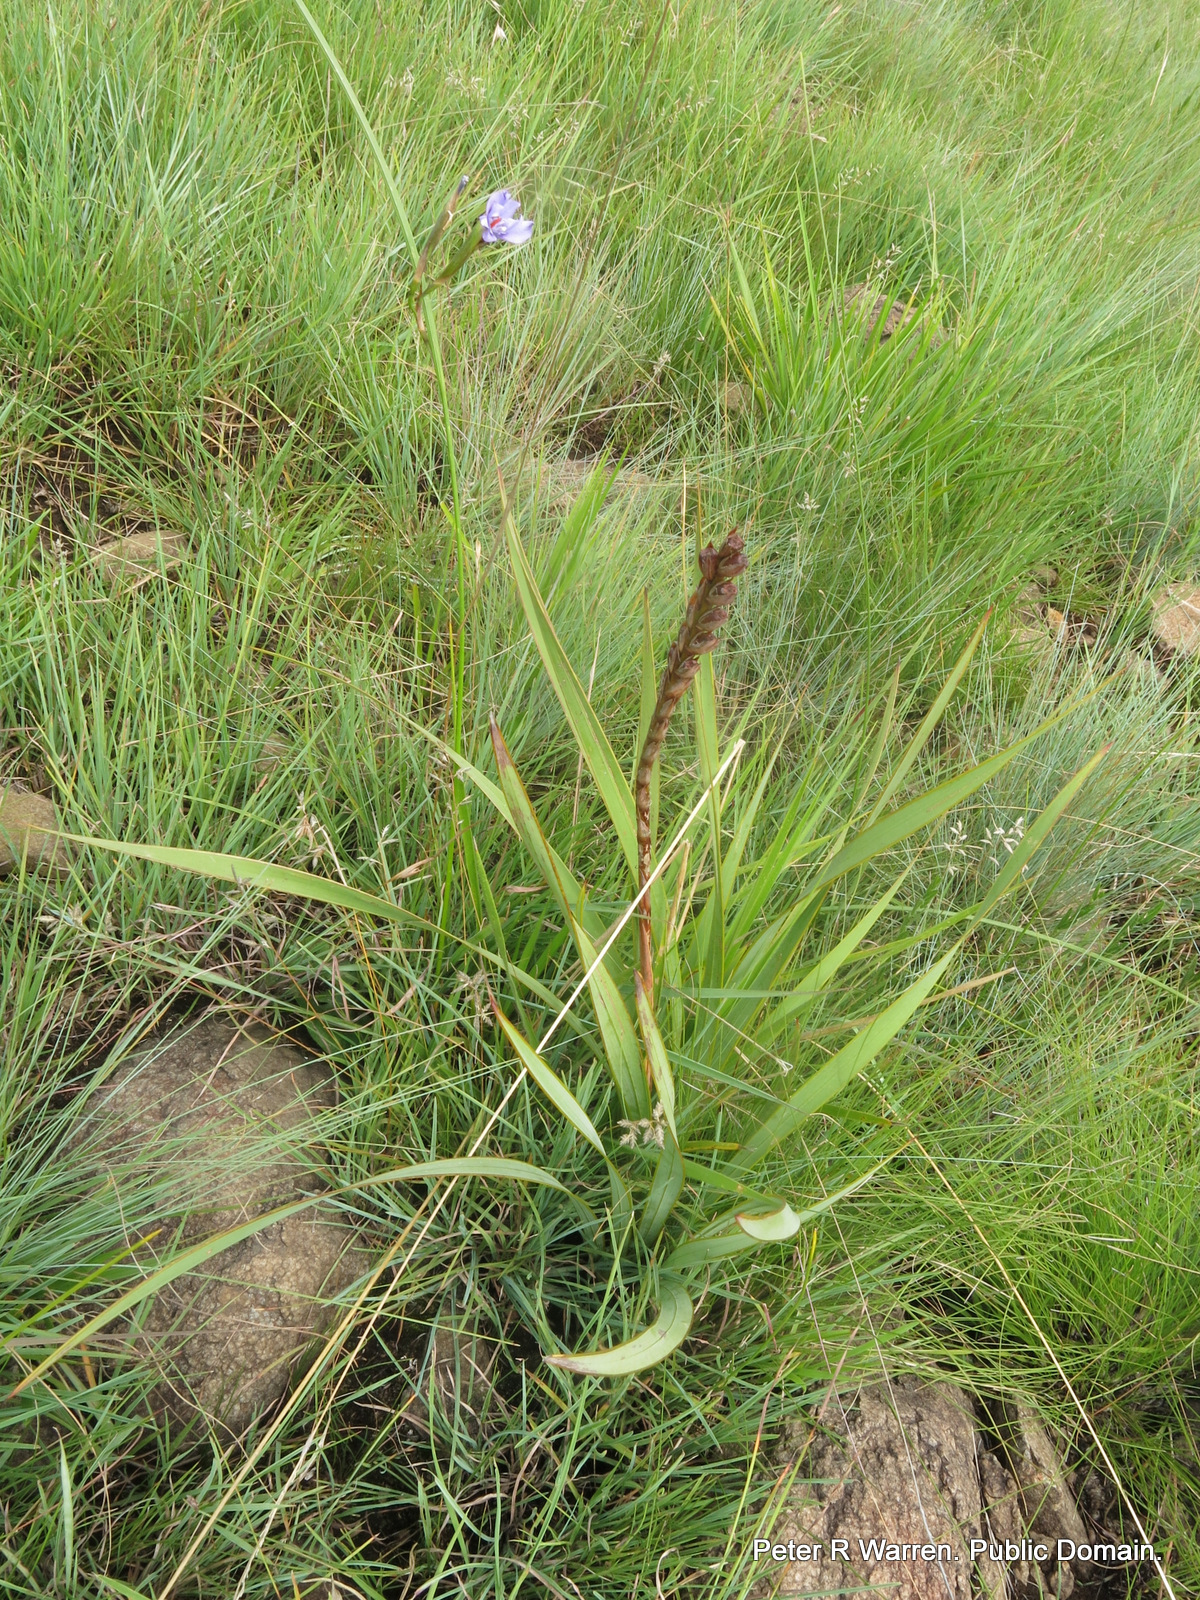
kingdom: Plantae
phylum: Tracheophyta
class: Liliopsida
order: Asparagales
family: Iridaceae
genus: Moraea
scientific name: Moraea natalensis
